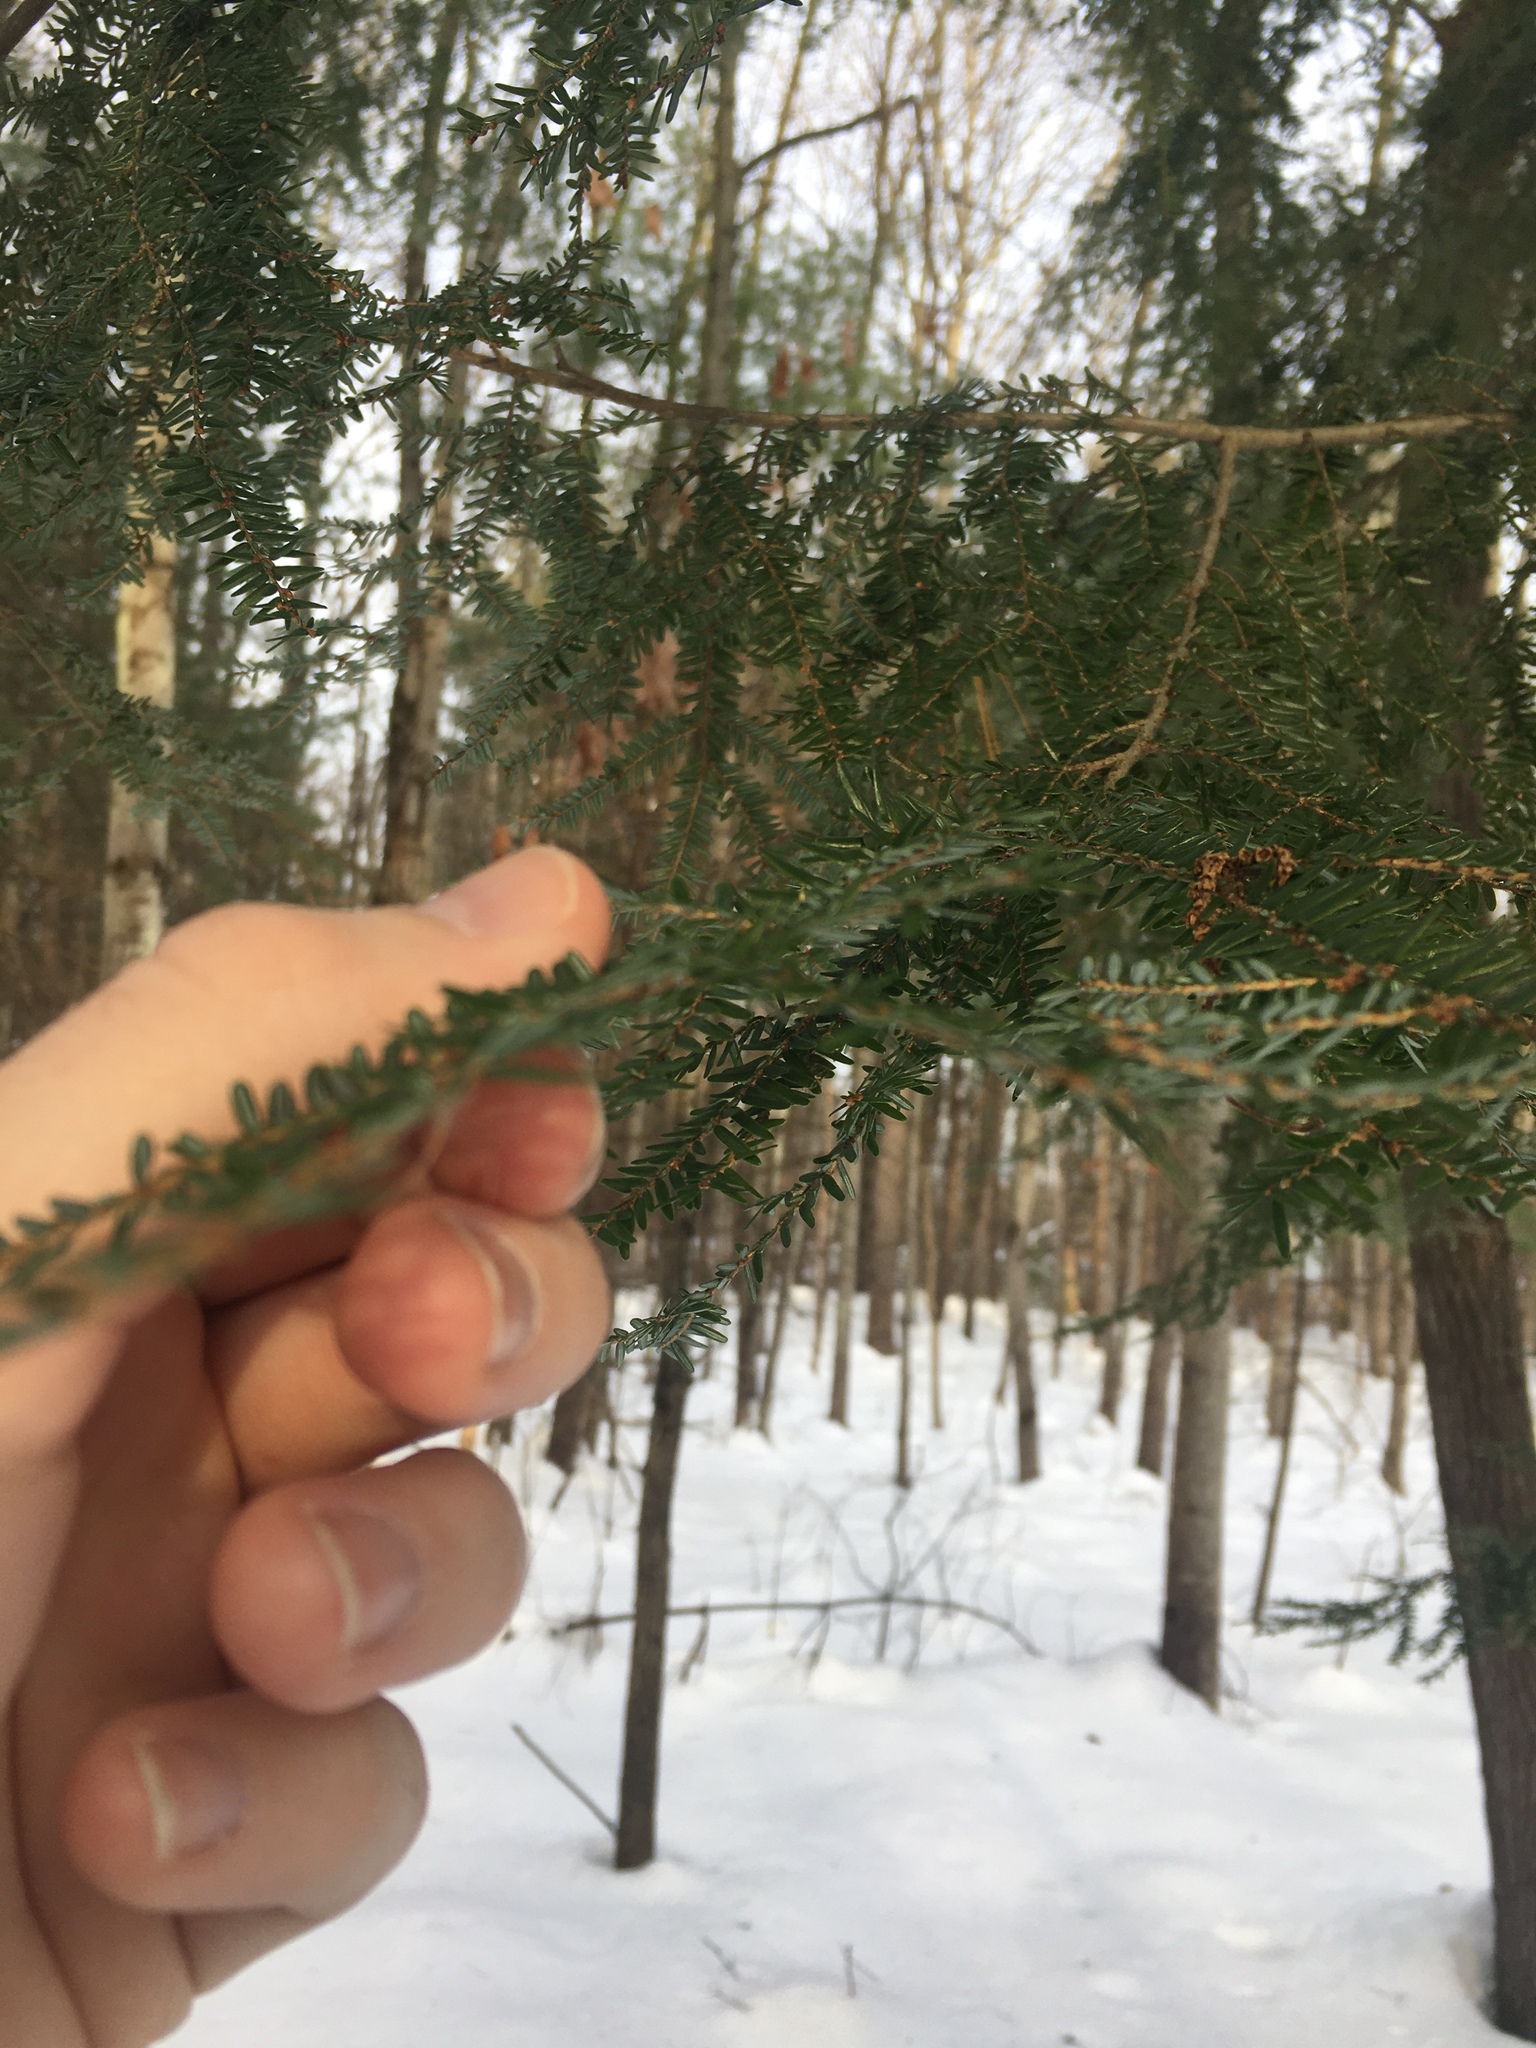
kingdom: Plantae
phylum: Tracheophyta
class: Pinopsida
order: Pinales
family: Pinaceae
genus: Tsuga
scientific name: Tsuga canadensis
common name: Eastern hemlock
